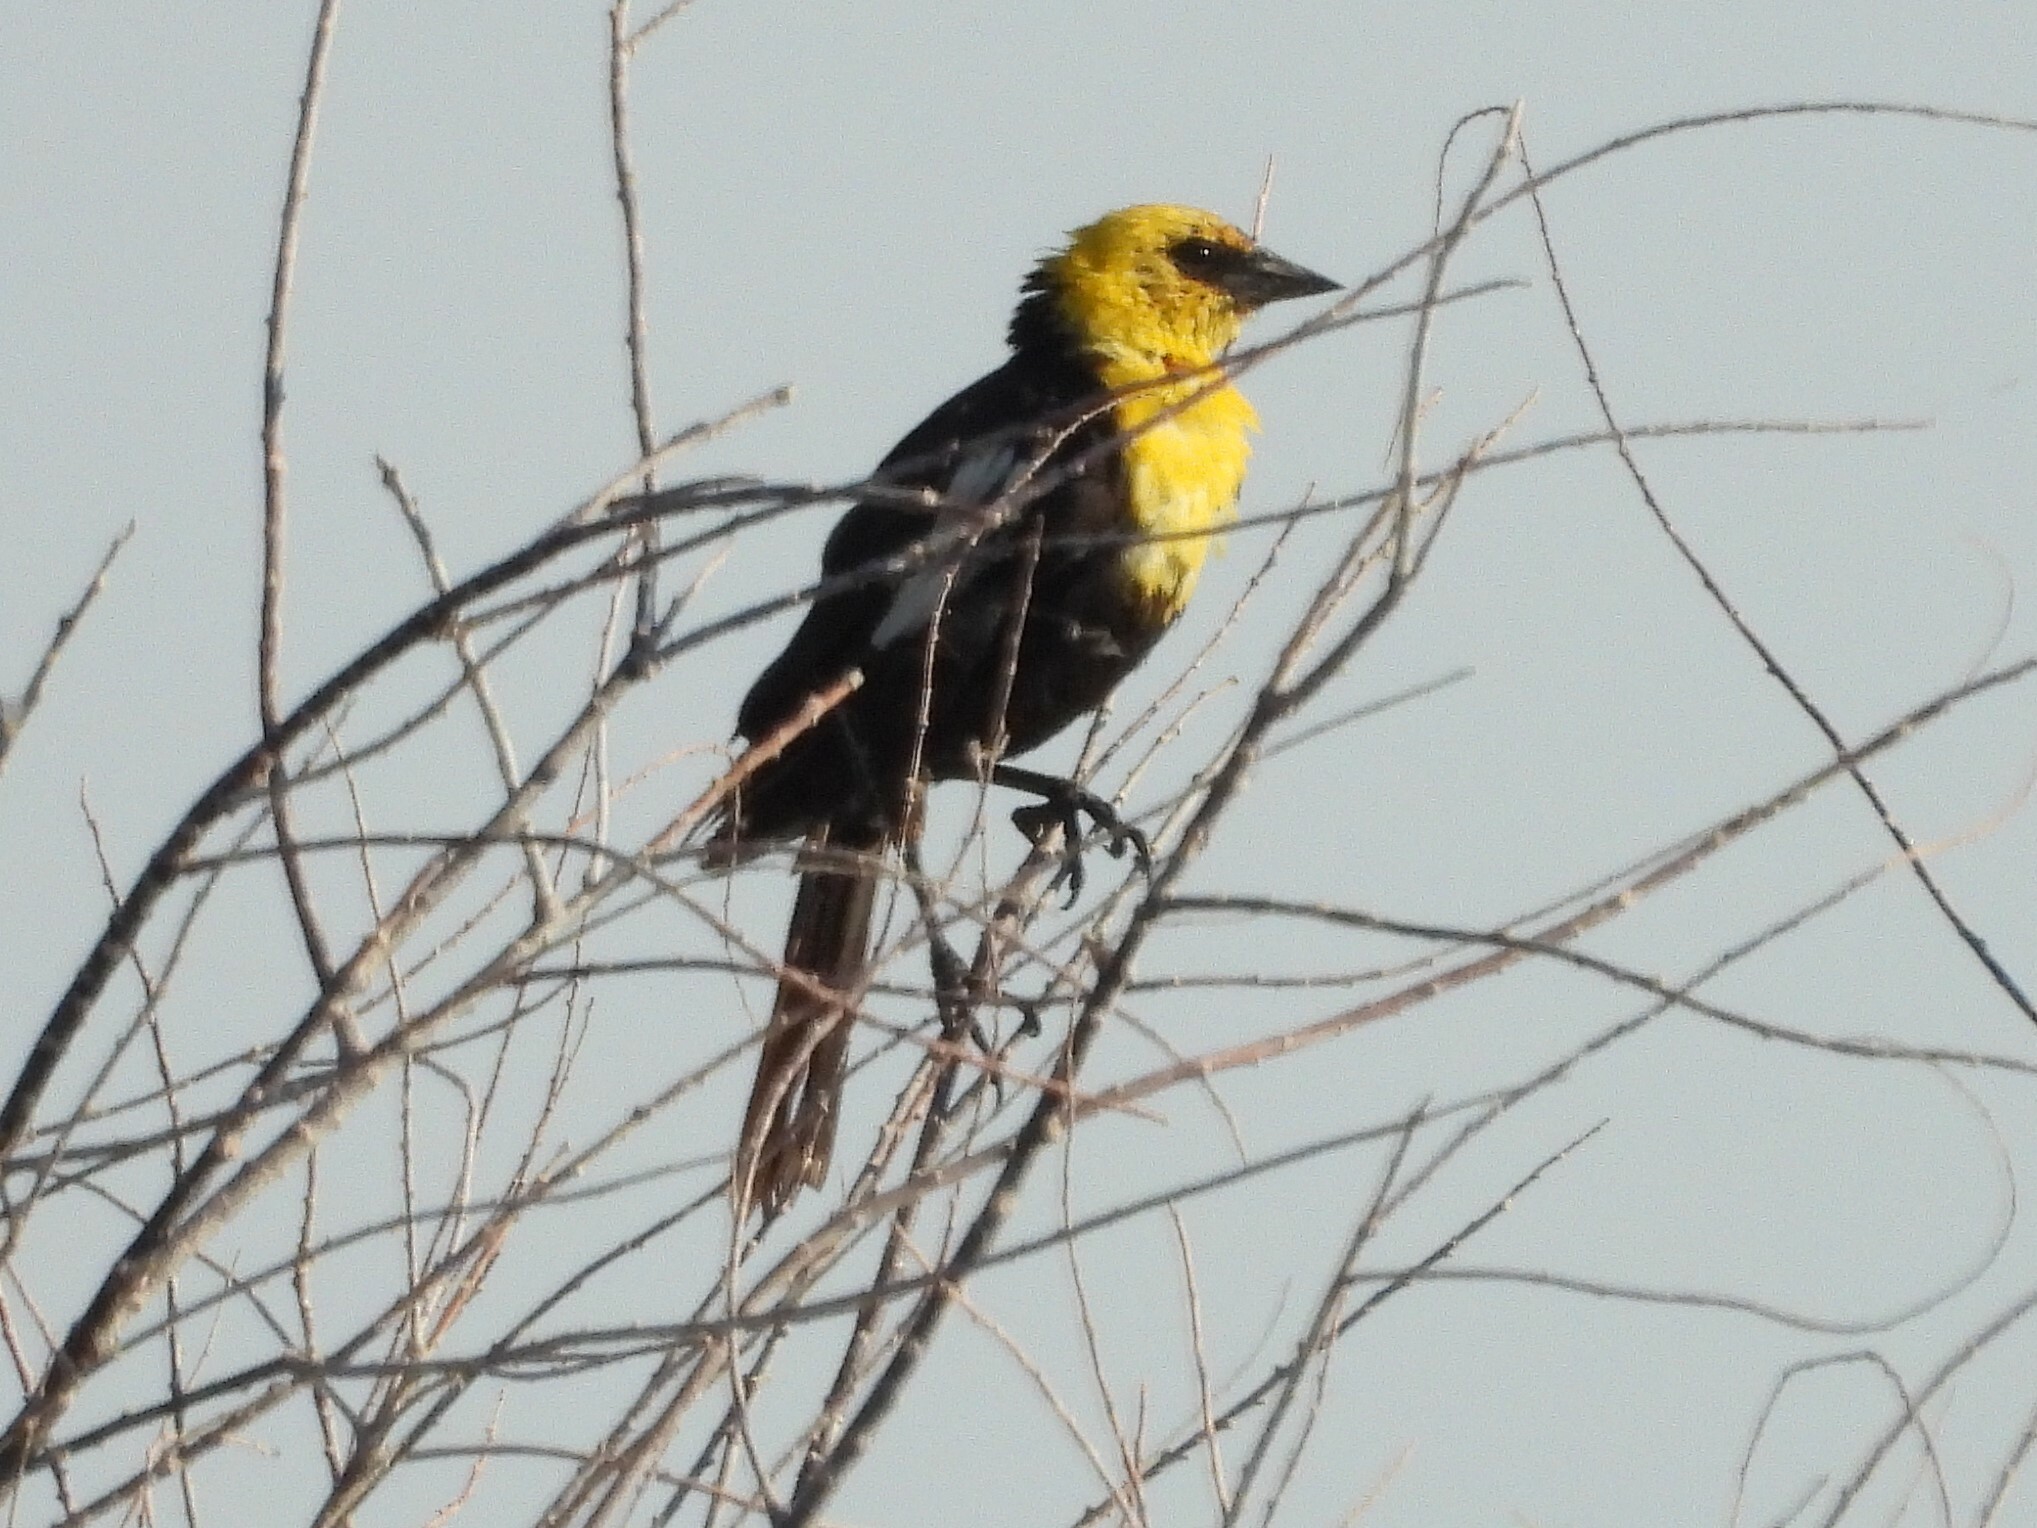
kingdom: Animalia
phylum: Chordata
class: Aves
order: Passeriformes
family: Icteridae
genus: Xanthocephalus
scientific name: Xanthocephalus xanthocephalus
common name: Yellow-headed blackbird
